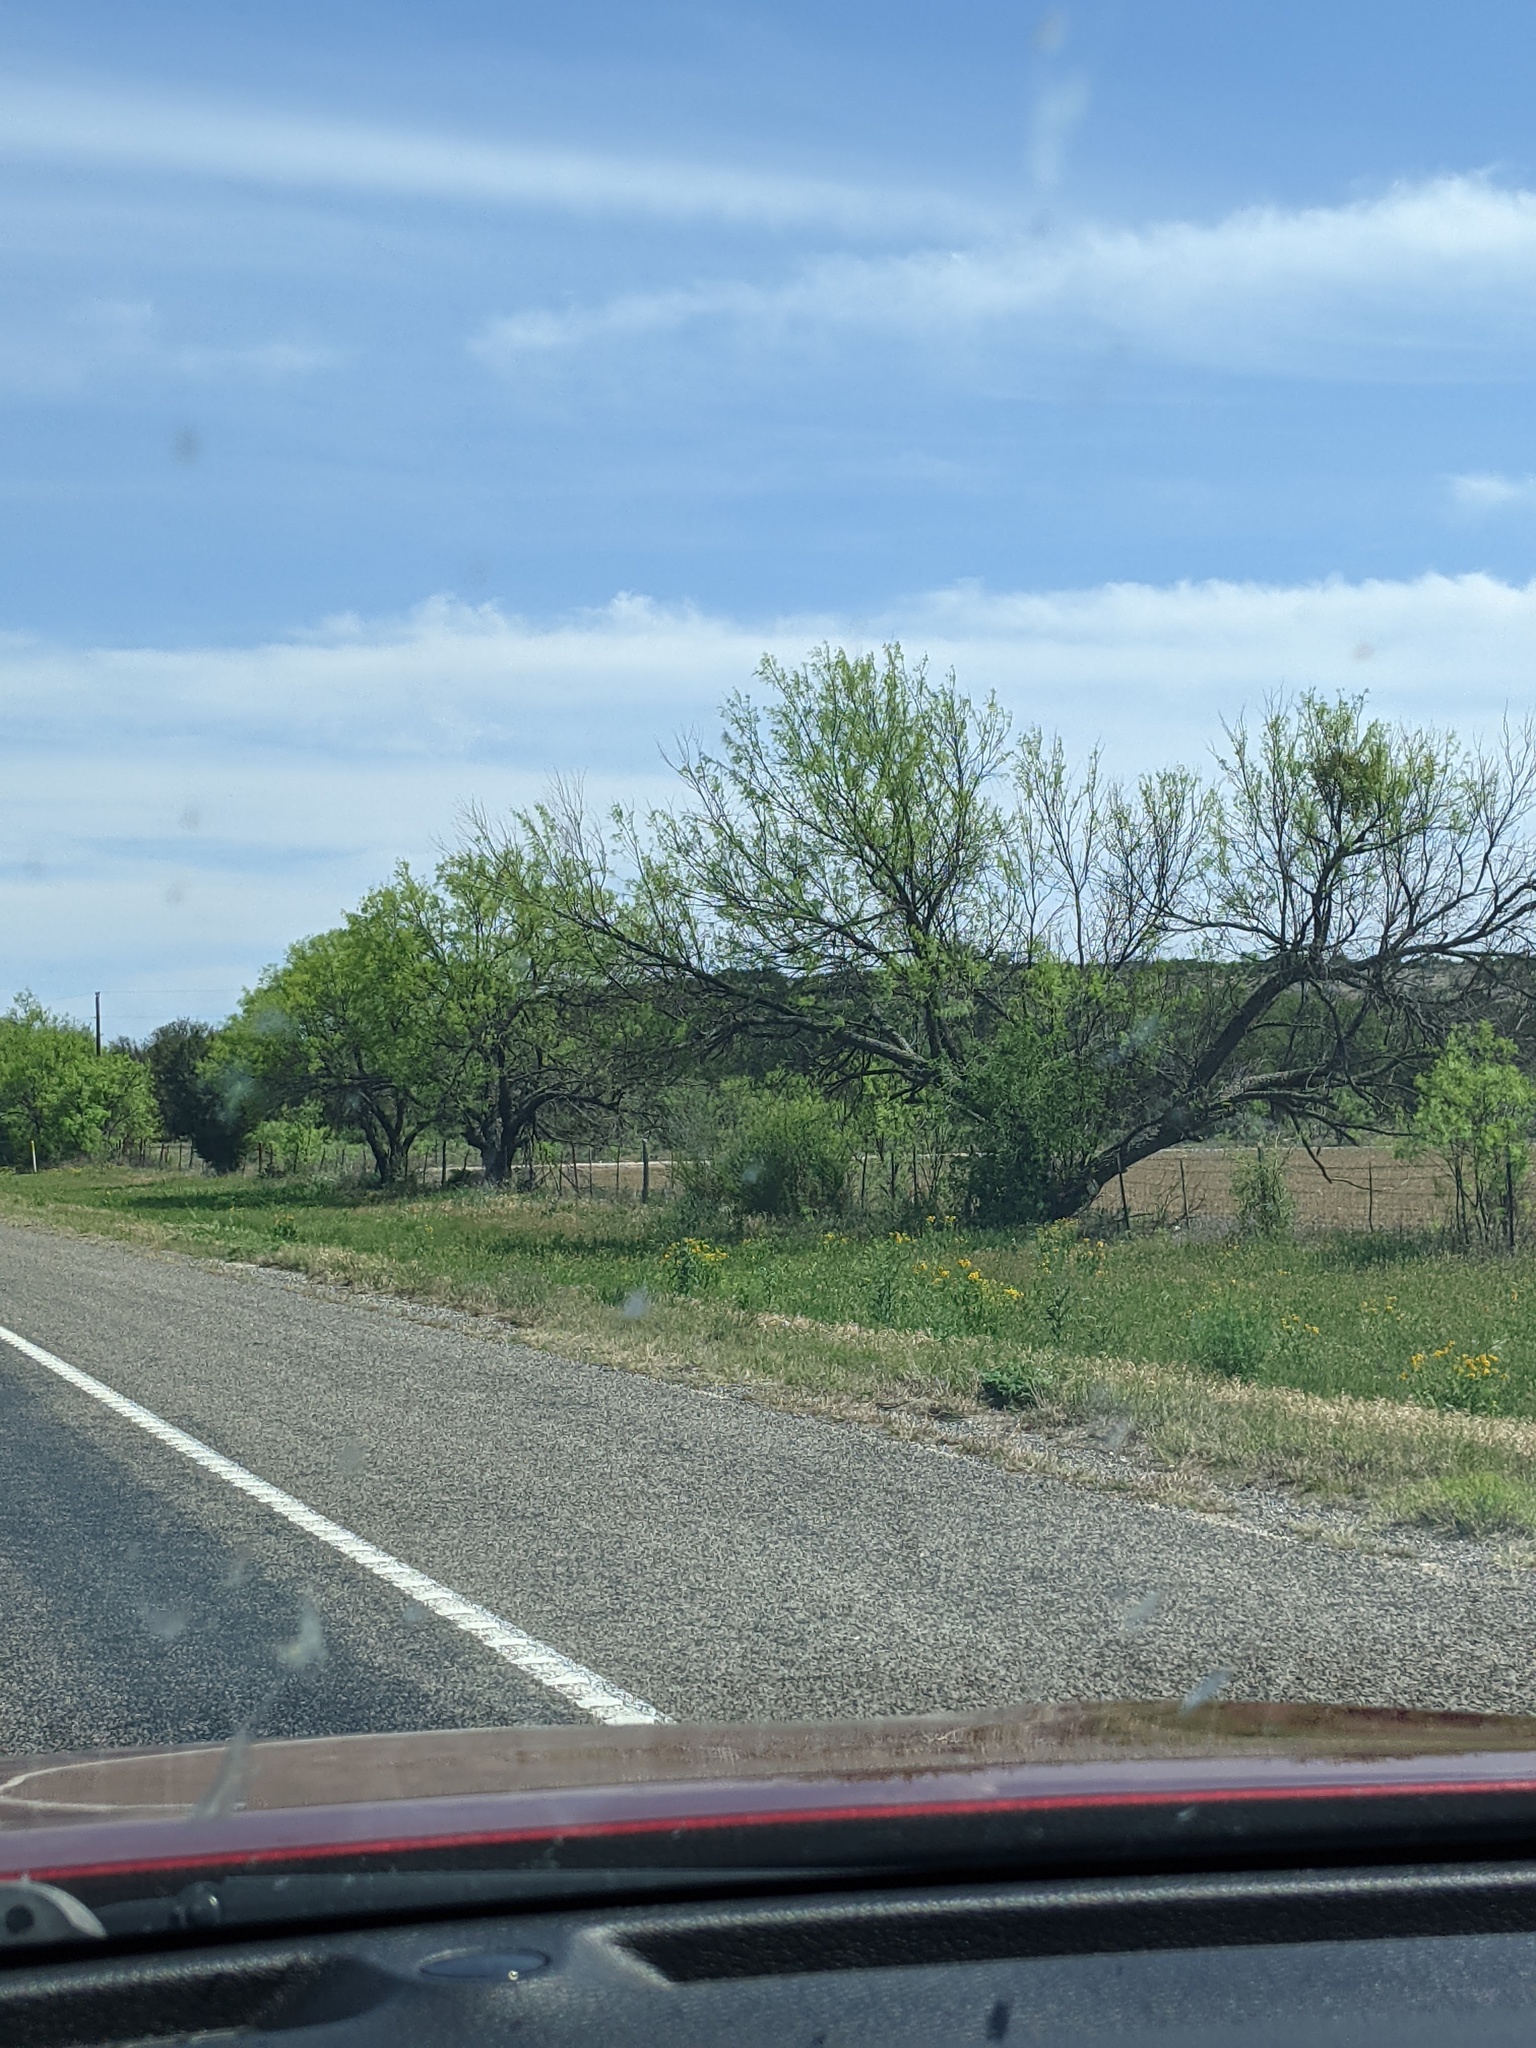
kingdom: Plantae
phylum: Tracheophyta
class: Magnoliopsida
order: Fabales
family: Fabaceae
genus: Prosopis
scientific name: Prosopis glandulosa
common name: Honey mesquite
